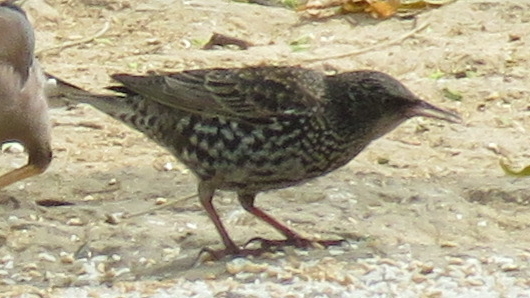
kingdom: Animalia
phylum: Chordata
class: Aves
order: Passeriformes
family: Sturnidae
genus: Sturnus
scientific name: Sturnus vulgaris
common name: Common starling
